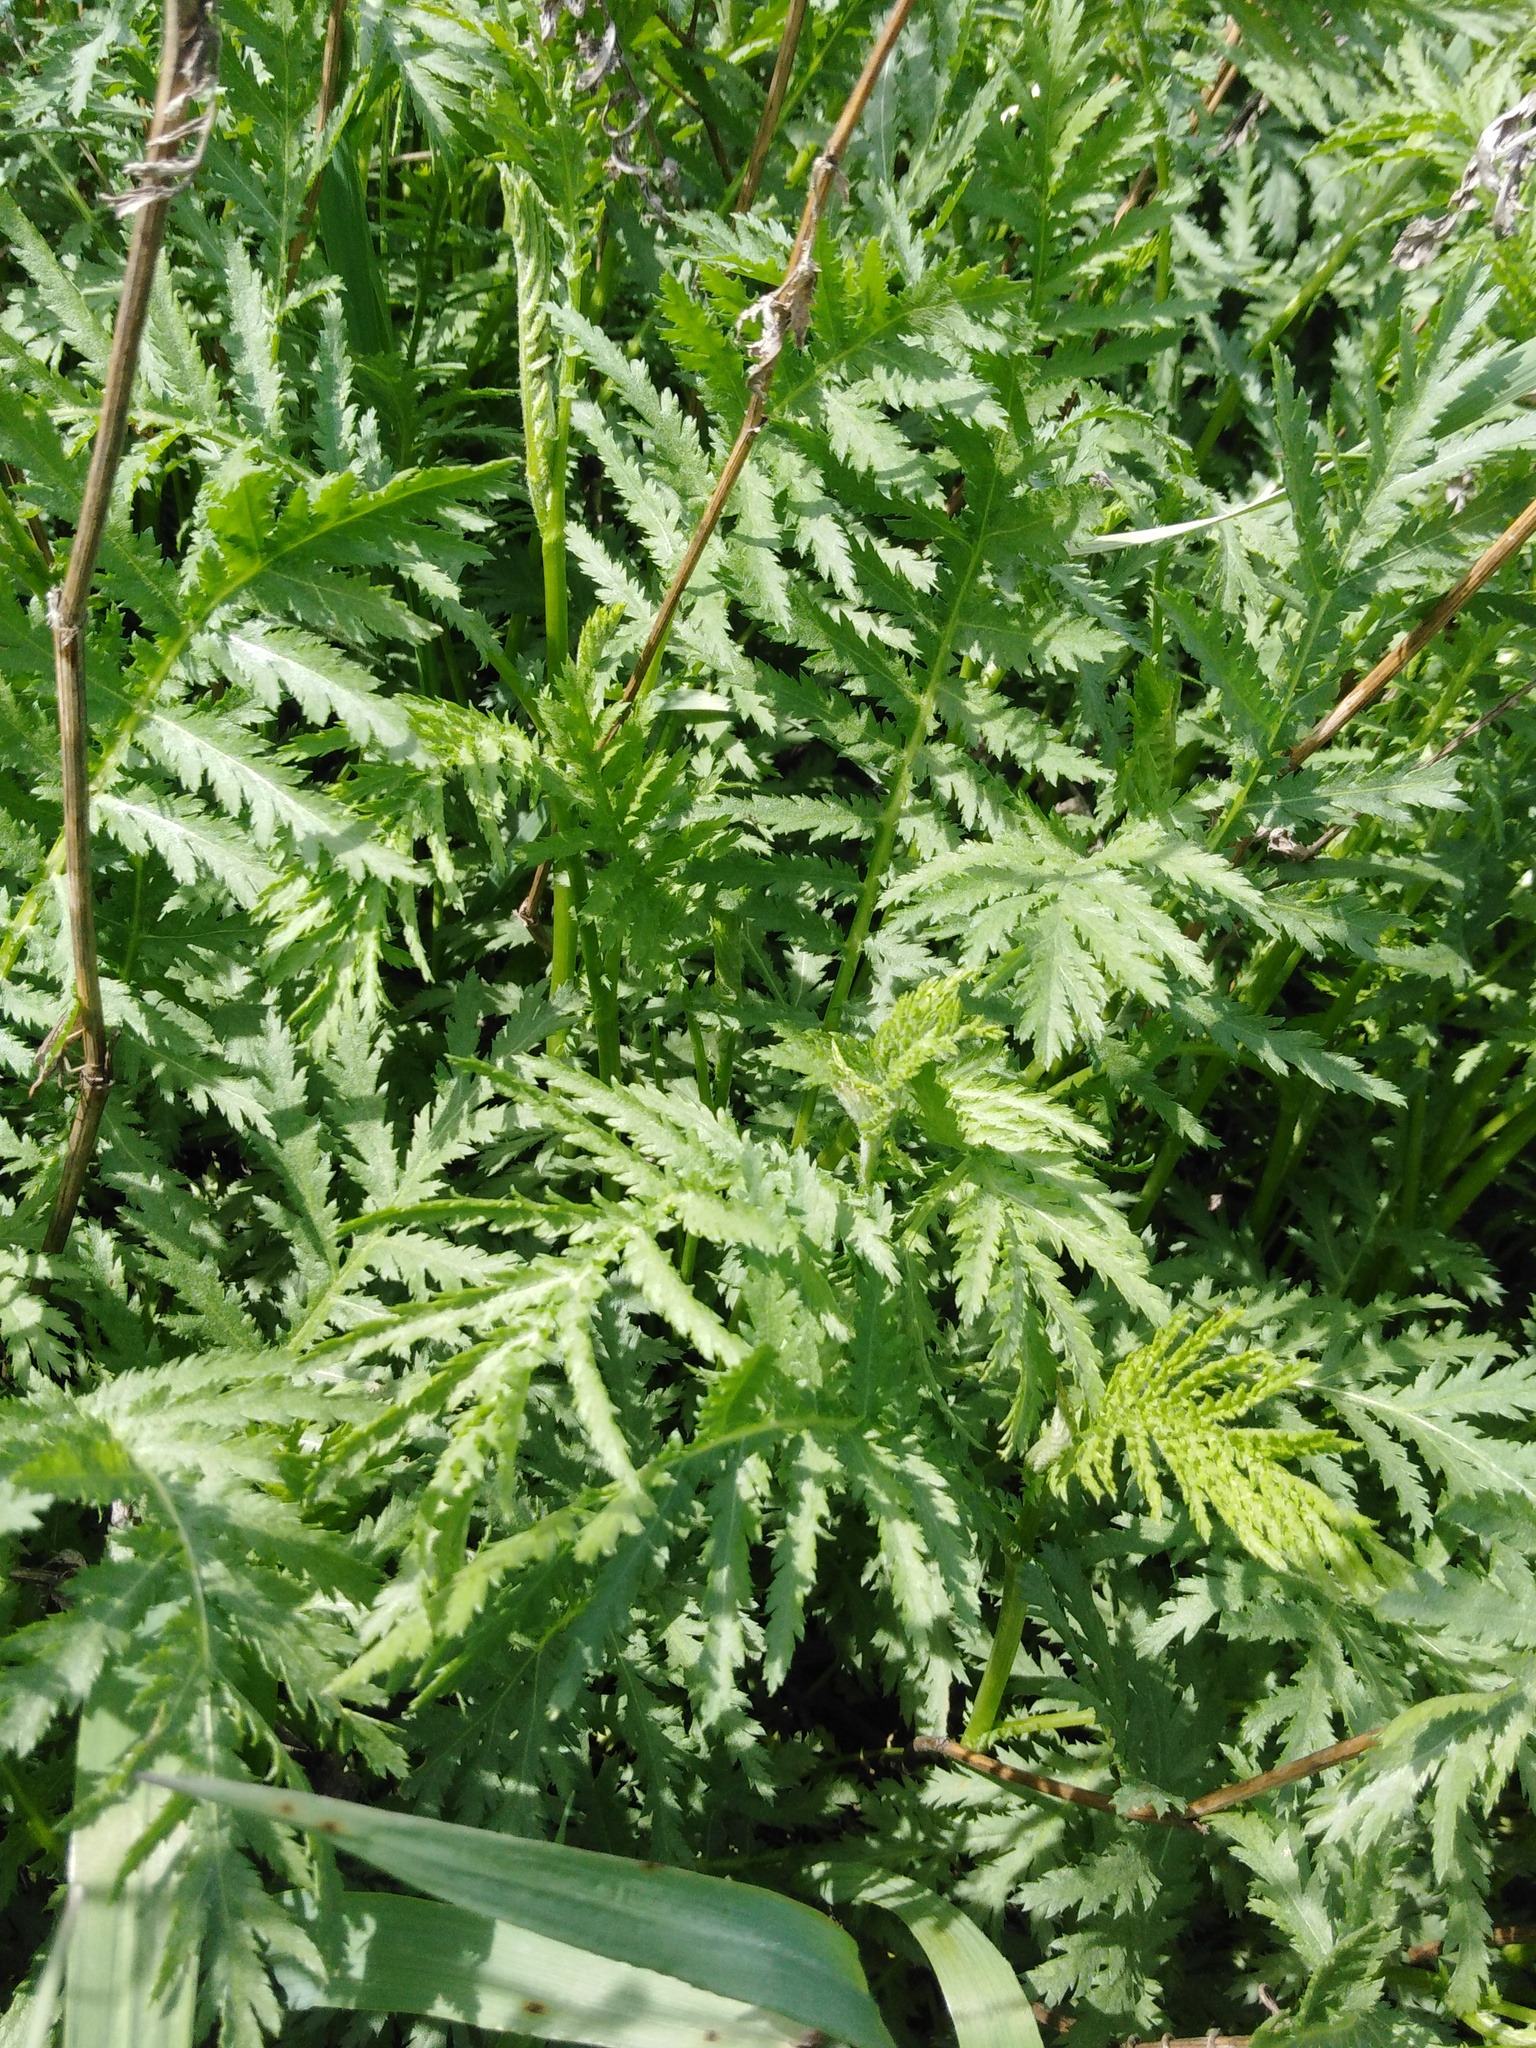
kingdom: Plantae
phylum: Tracheophyta
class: Magnoliopsida
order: Asterales
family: Asteraceae
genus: Tanacetum
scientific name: Tanacetum vulgare
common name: Common tansy
